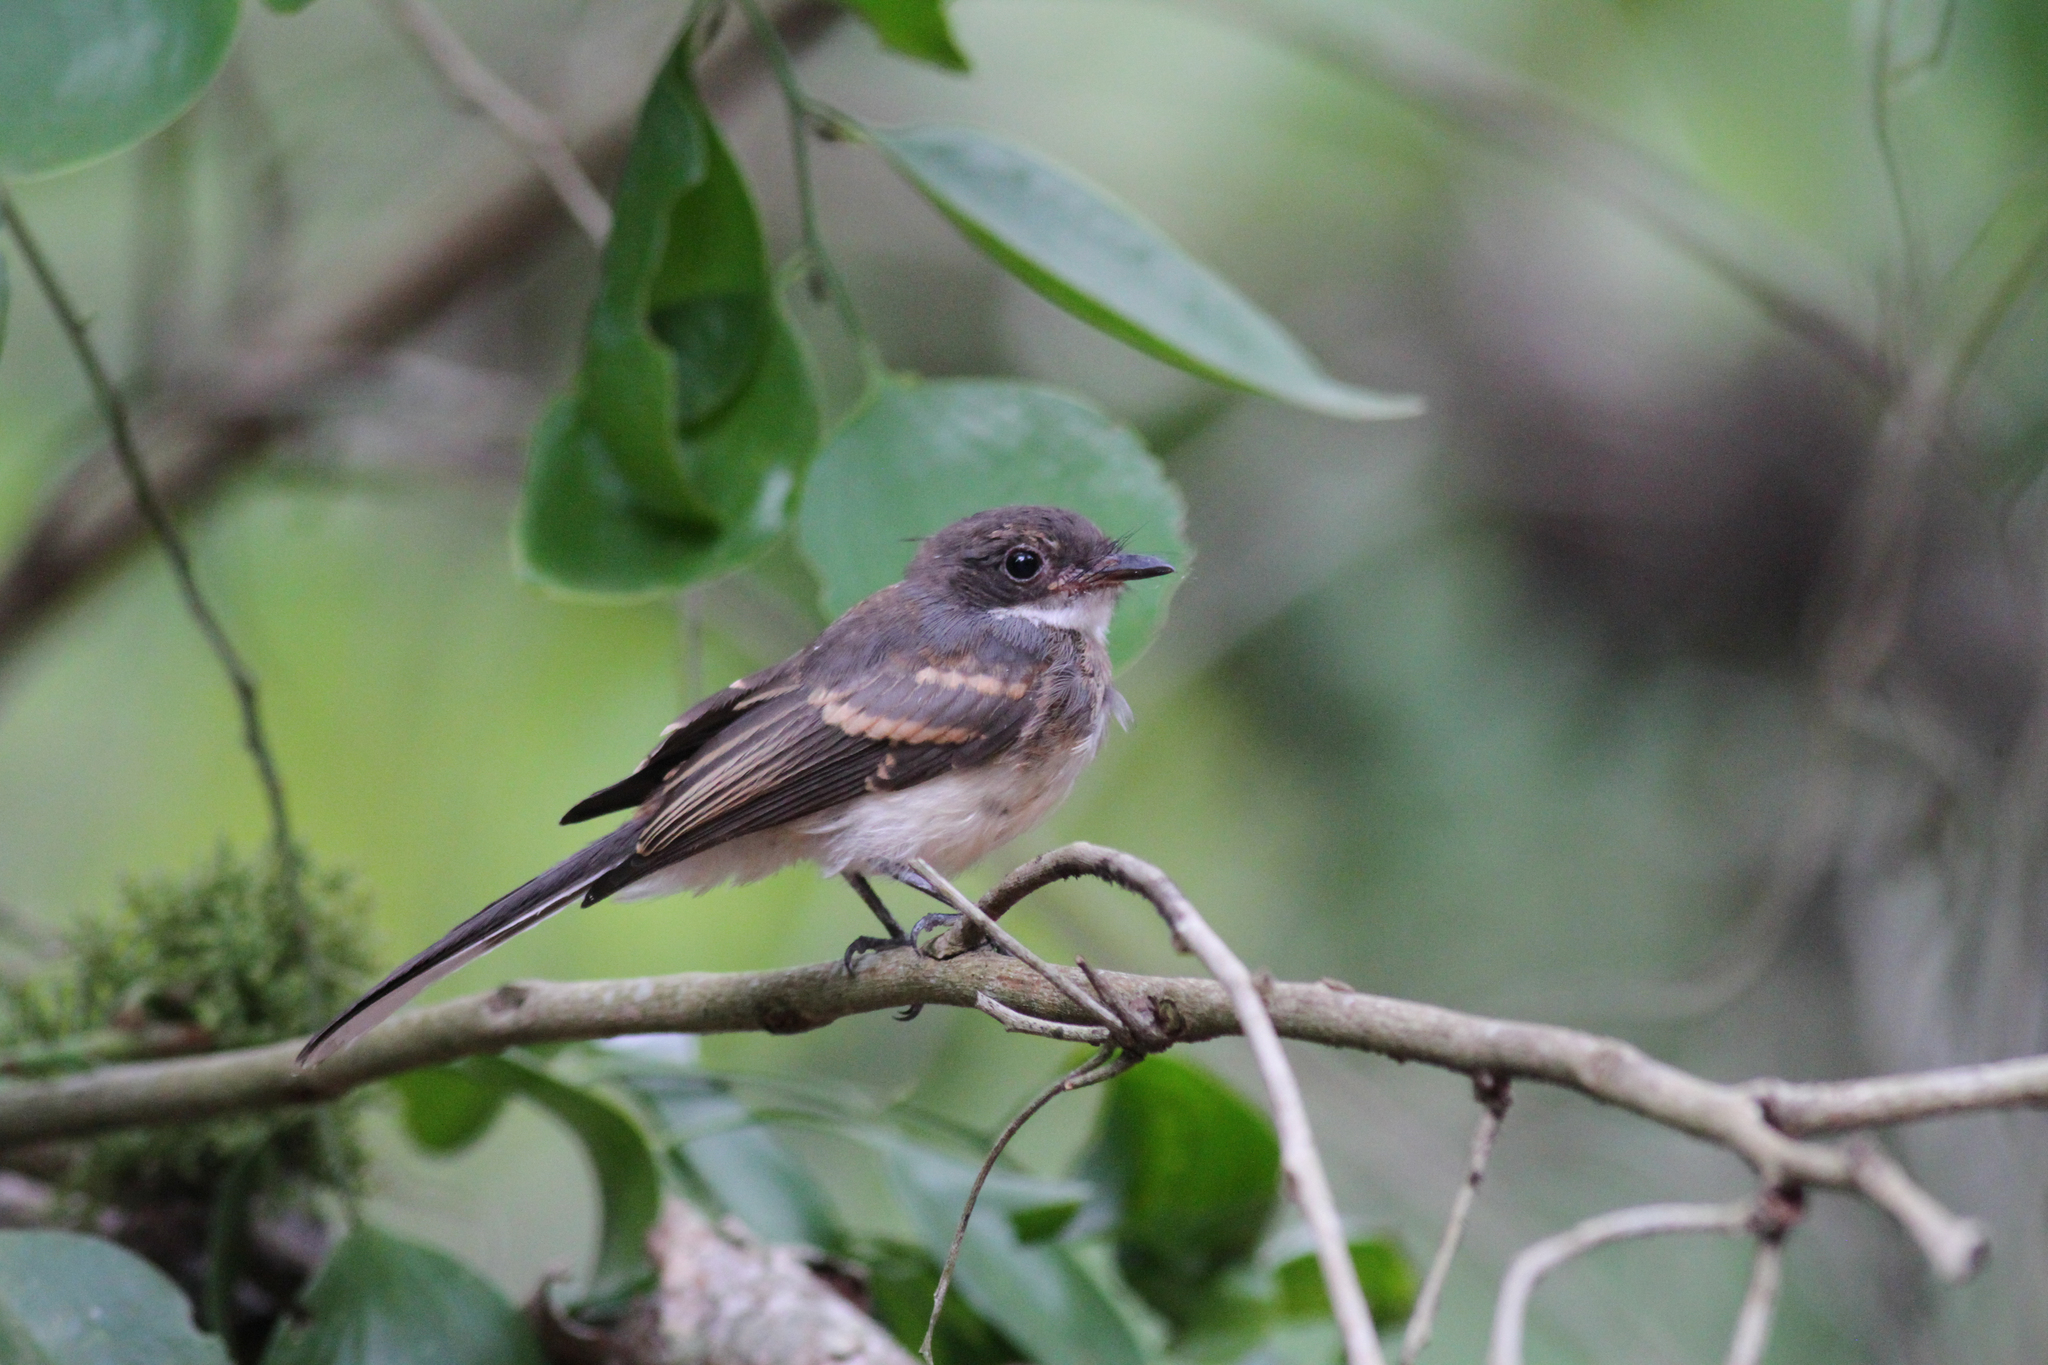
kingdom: Animalia
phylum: Chordata
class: Aves
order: Passeriformes
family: Rhipiduridae
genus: Rhipidura
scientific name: Rhipidura rufiventris
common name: Northern fantail
